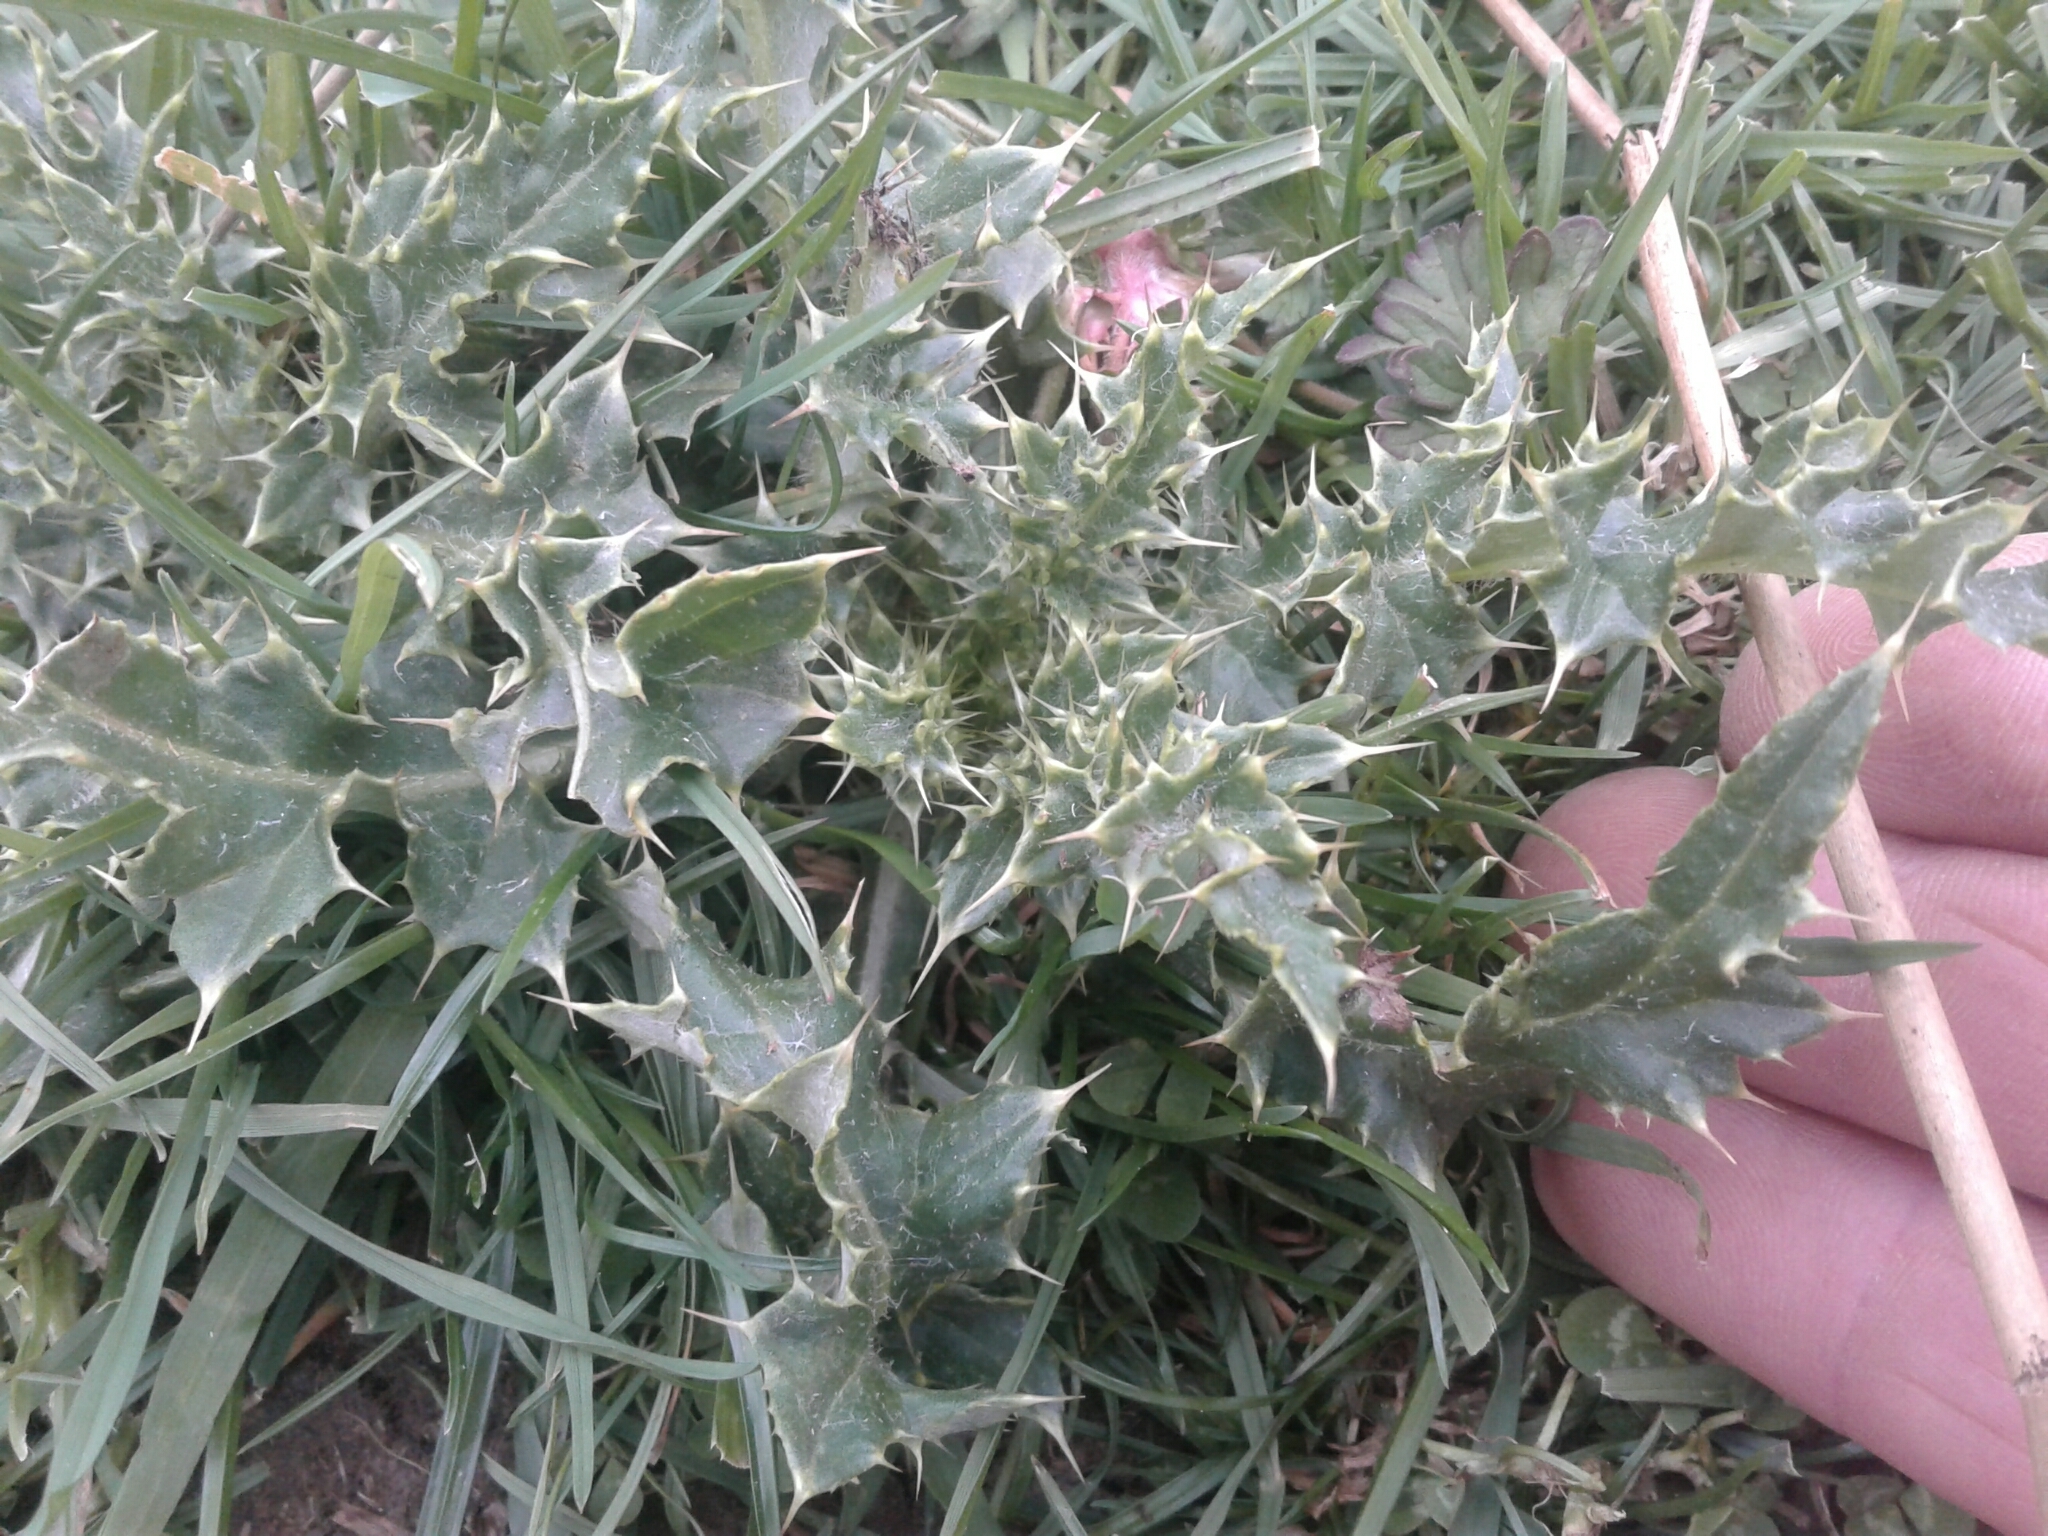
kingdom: Plantae
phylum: Tracheophyta
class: Magnoliopsida
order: Asterales
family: Asteraceae
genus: Cirsium
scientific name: Cirsium arvense
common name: Creeping thistle
